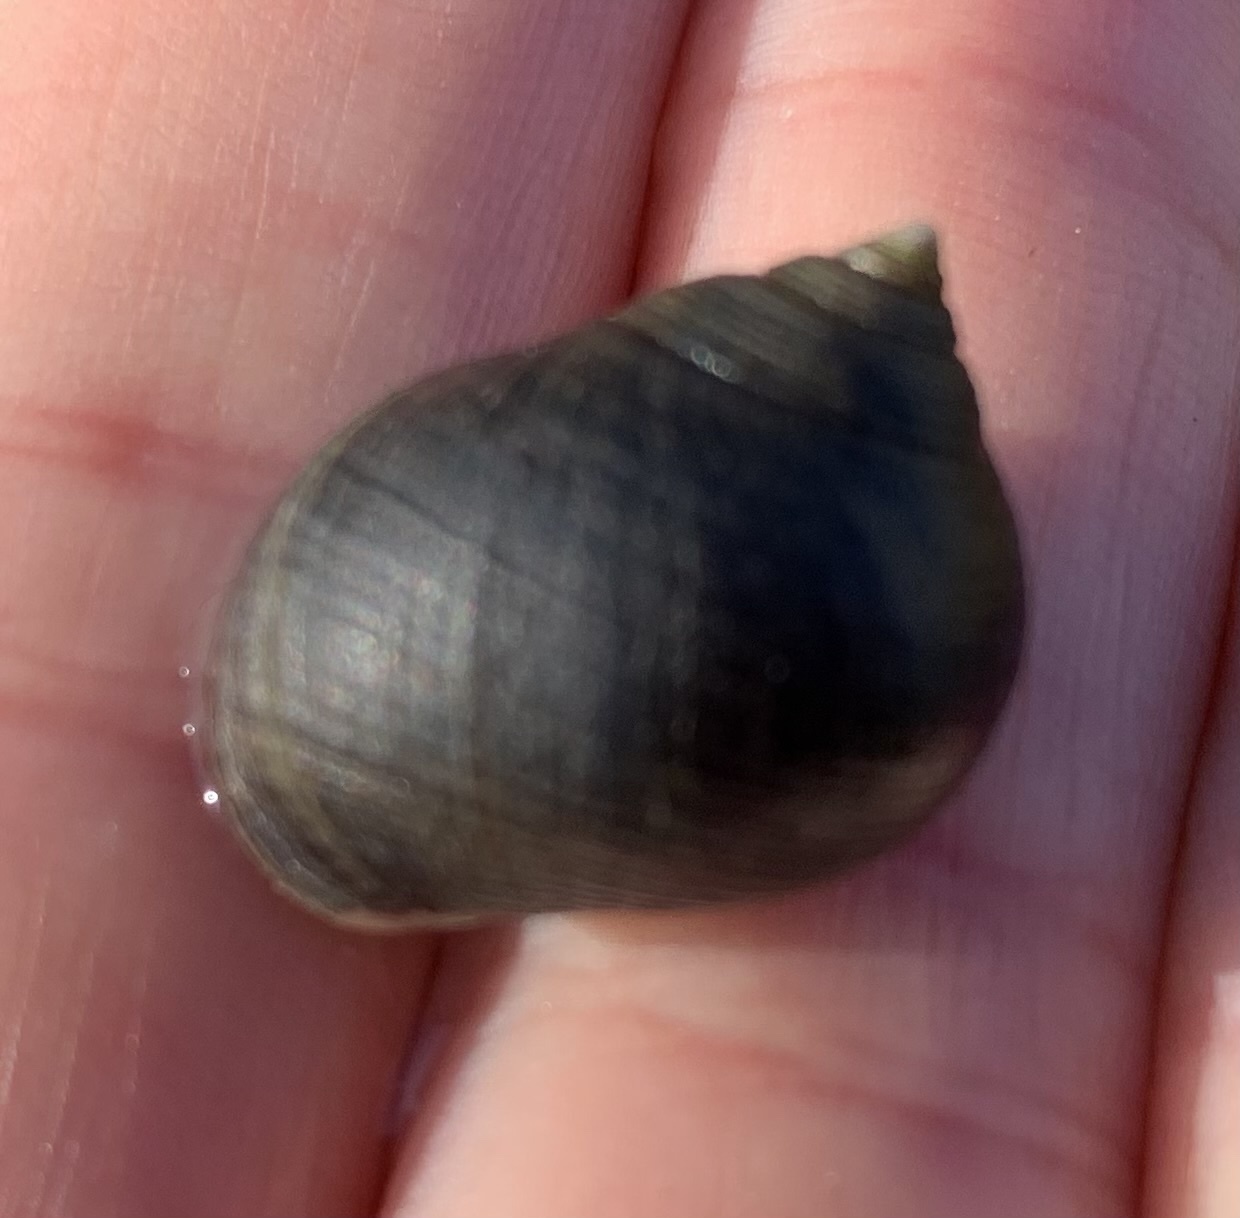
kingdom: Animalia
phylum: Mollusca
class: Gastropoda
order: Littorinimorpha
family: Littorinidae
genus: Littorina
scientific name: Littorina littorea
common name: Common periwinkle
